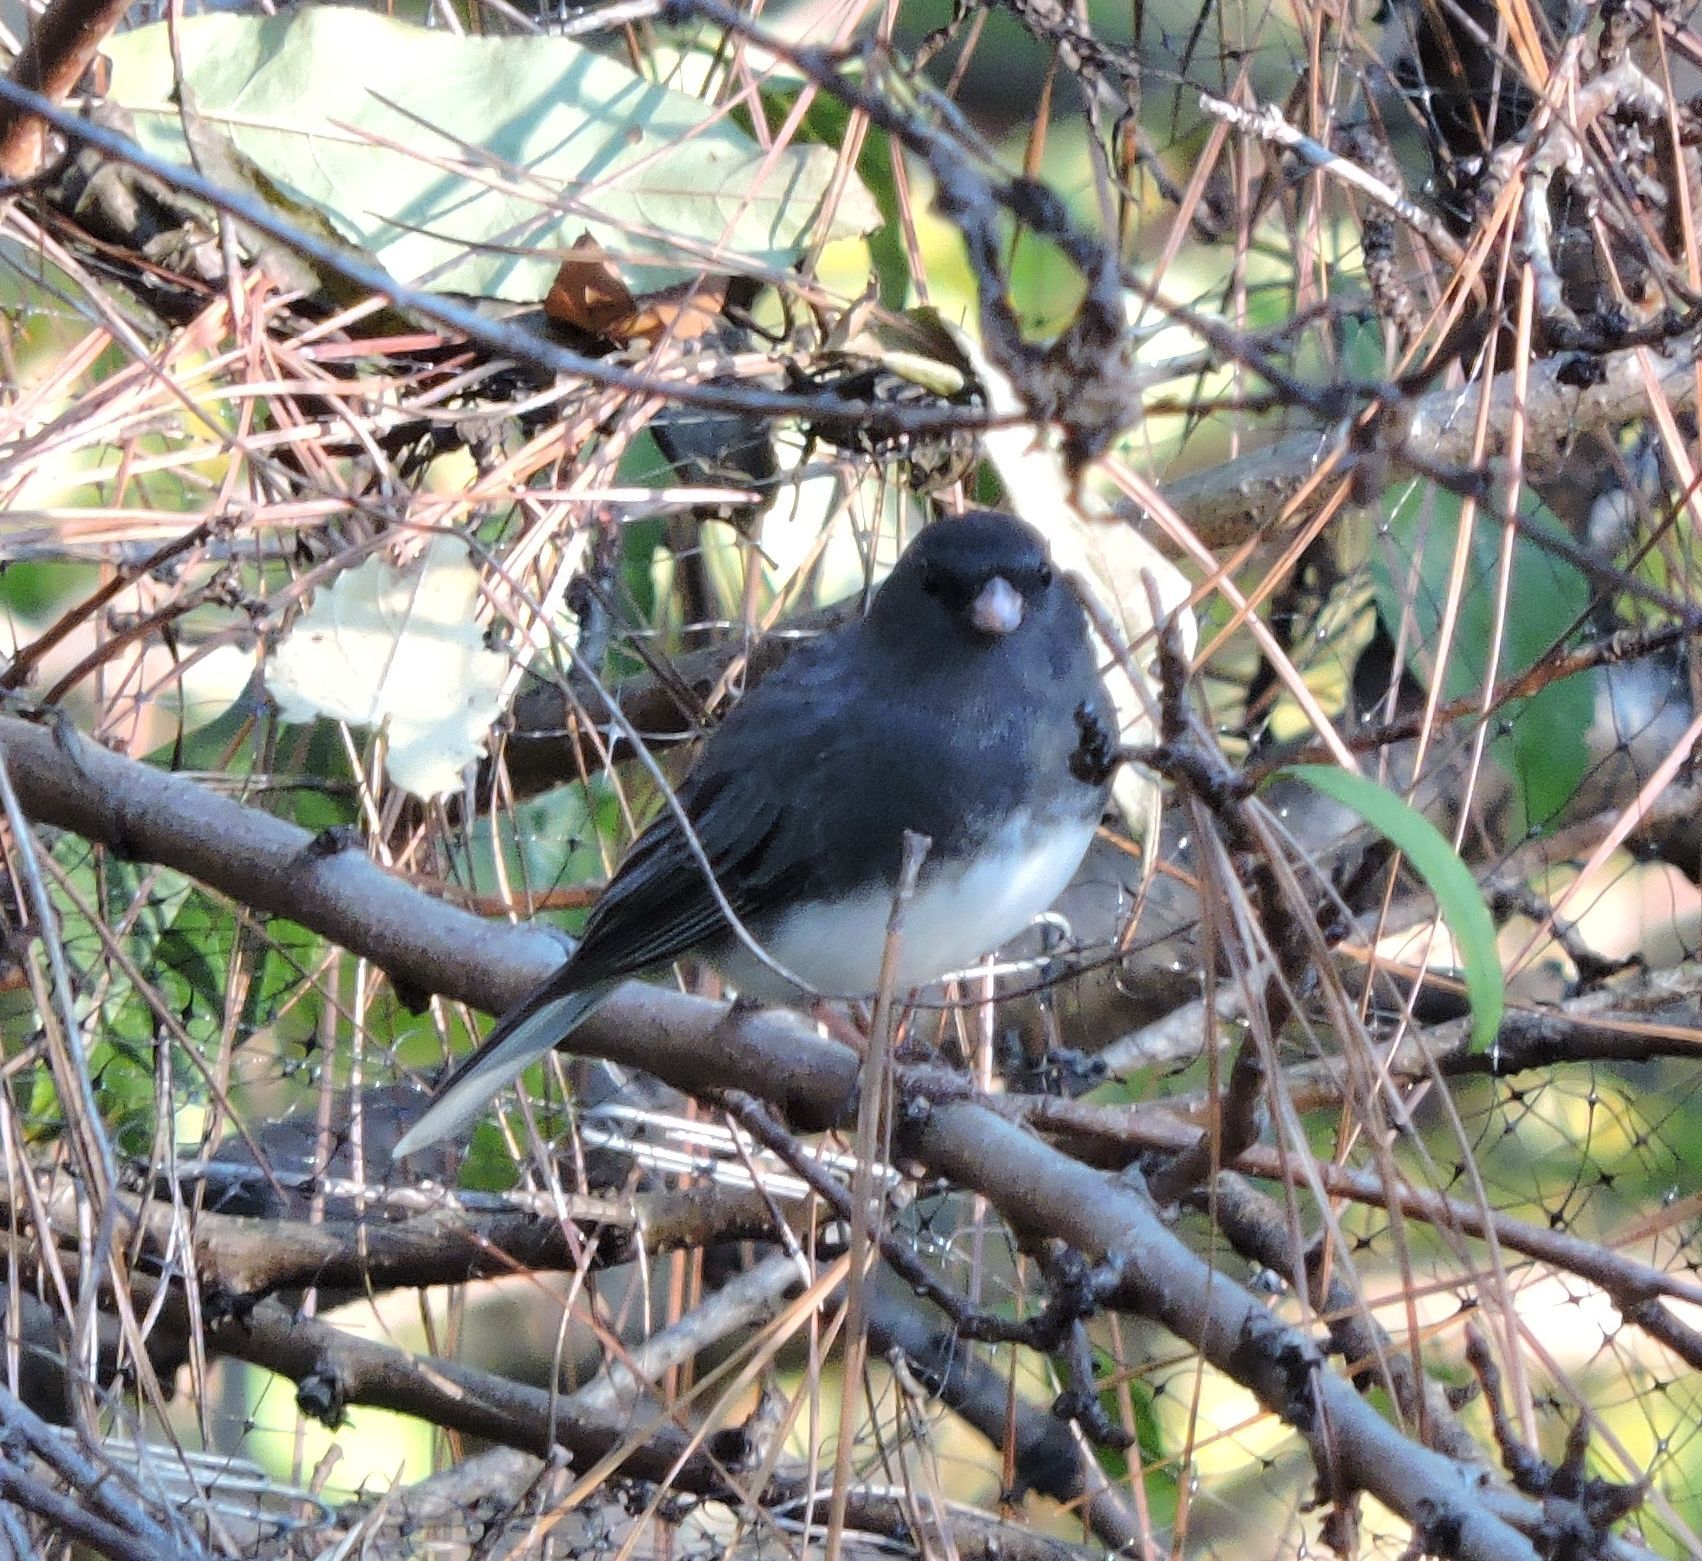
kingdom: Animalia
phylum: Chordata
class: Aves
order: Passeriformes
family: Passerellidae
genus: Junco
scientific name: Junco hyemalis
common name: Dark-eyed junco
